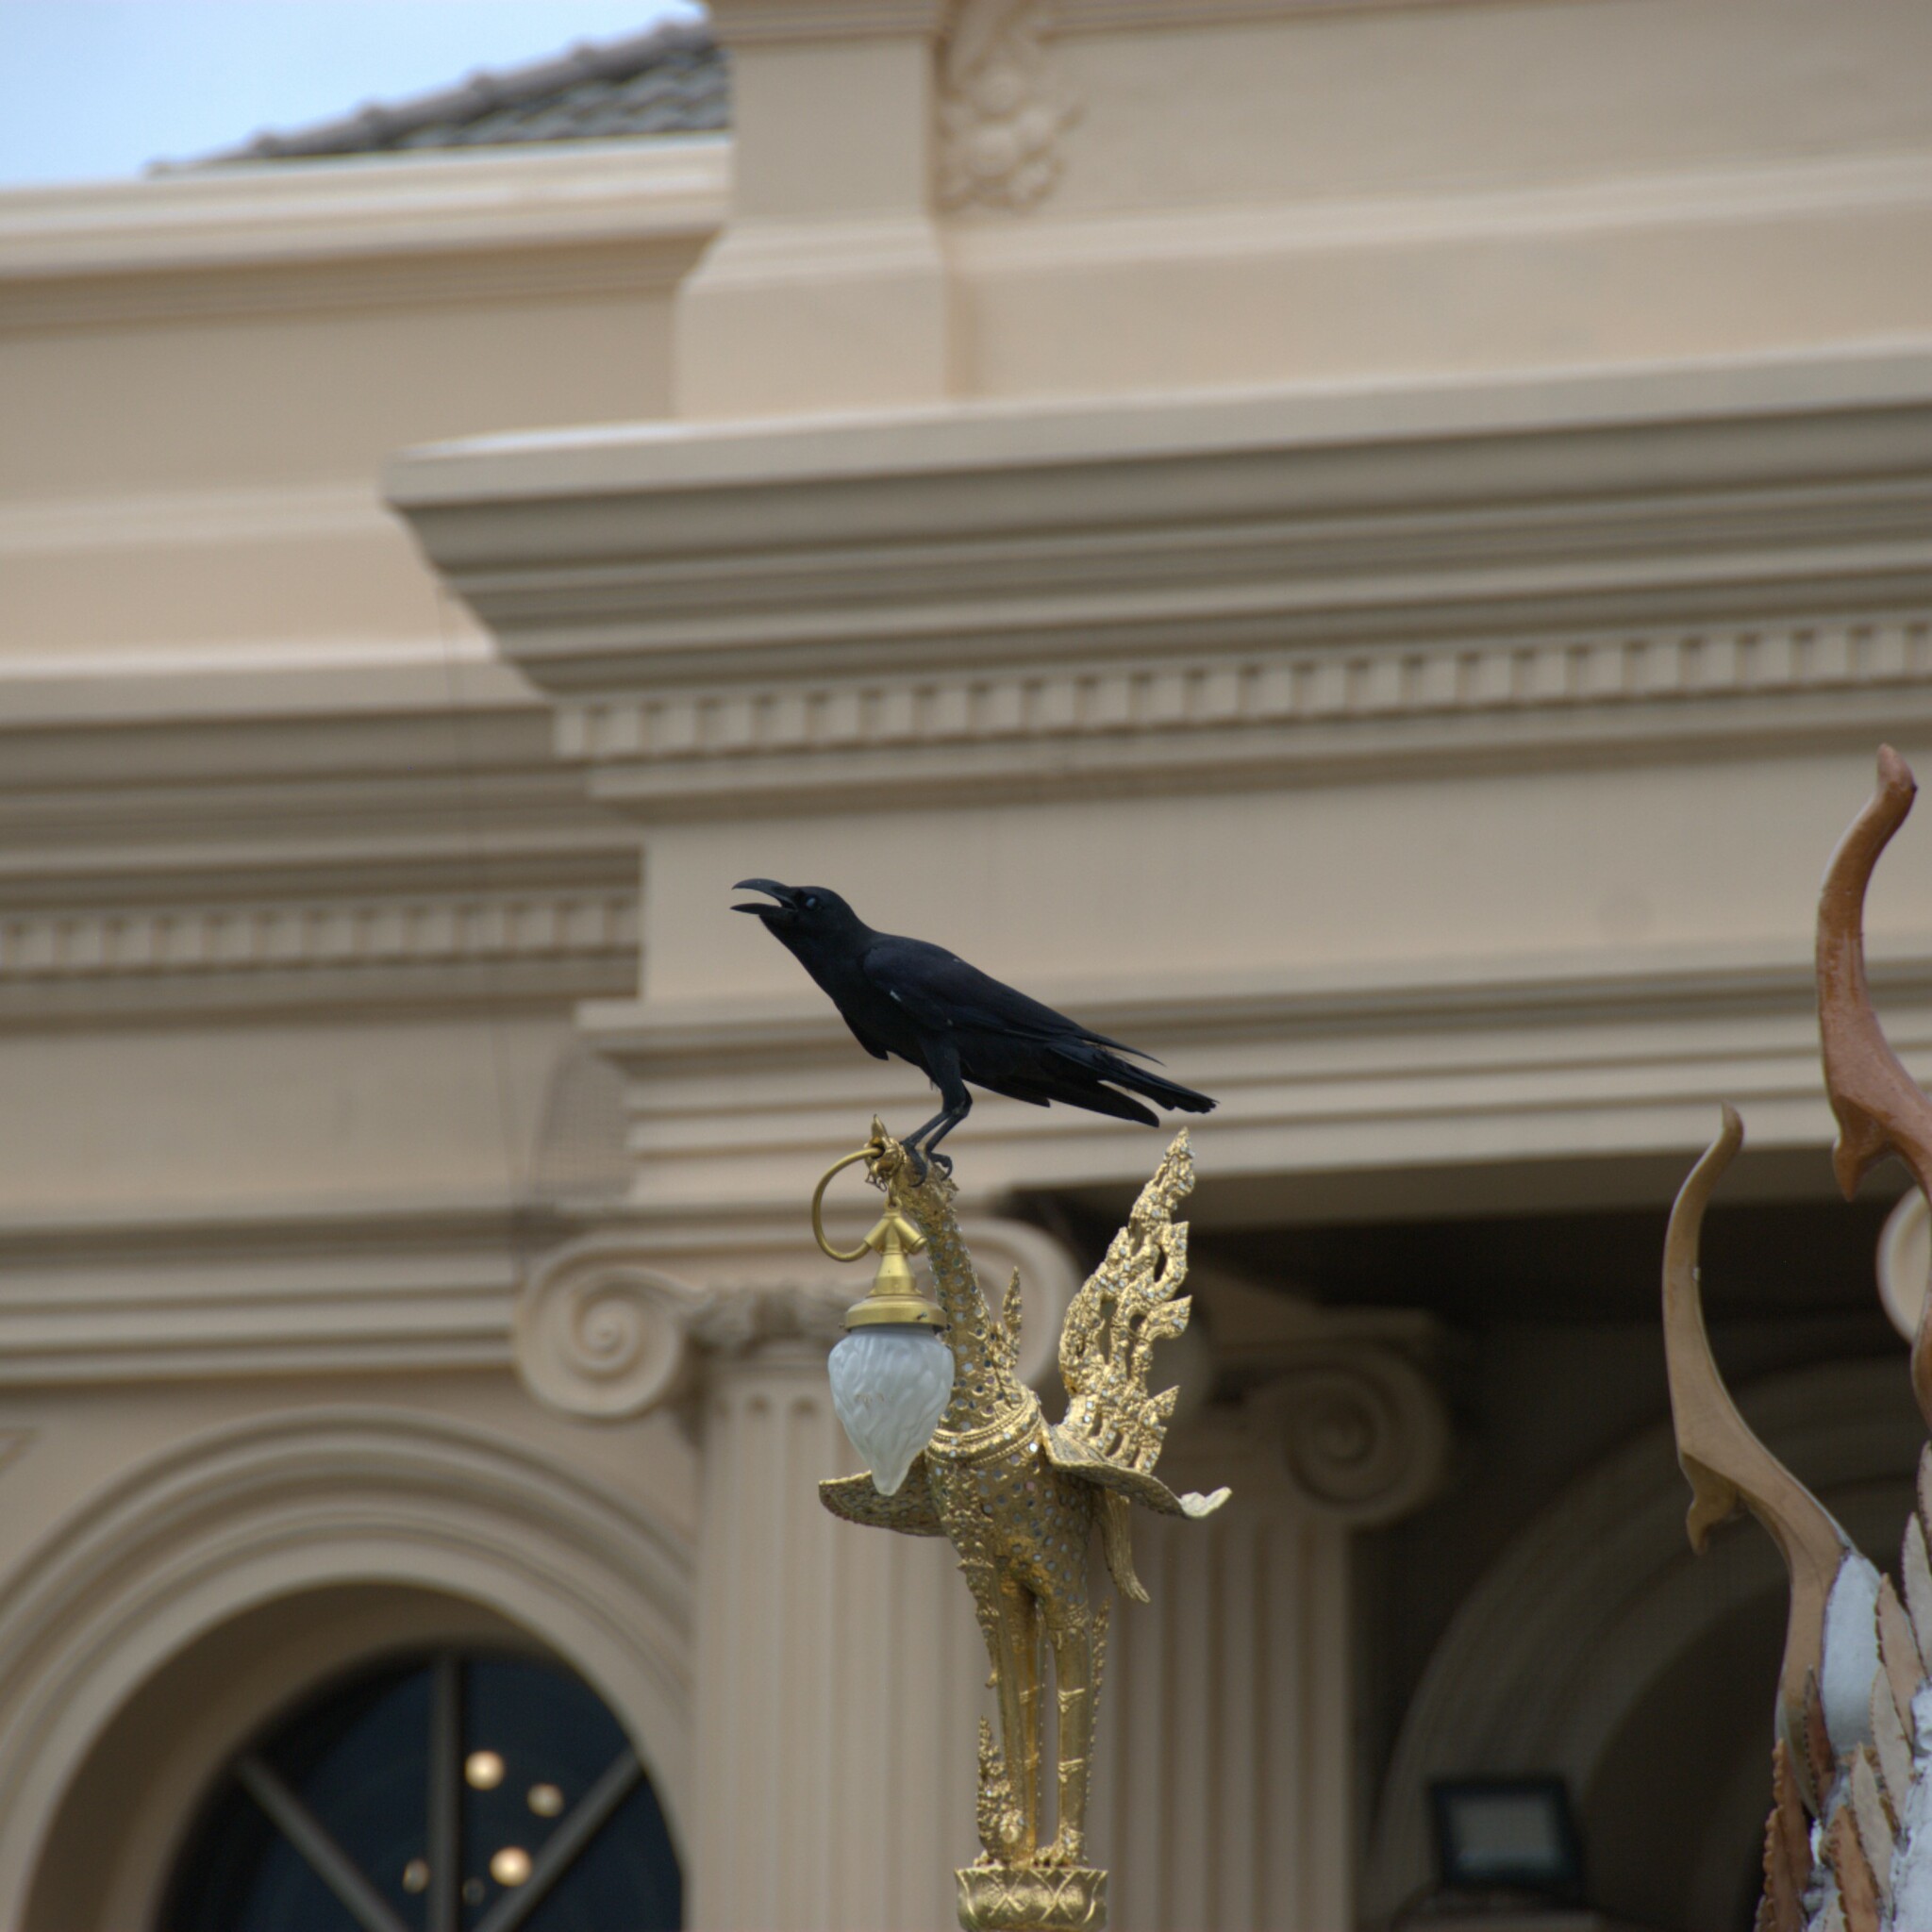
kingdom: Animalia
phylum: Chordata
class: Aves
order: Passeriformes
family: Corvidae
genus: Corvus
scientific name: Corvus macrorhynchos
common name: Large-billed crow
